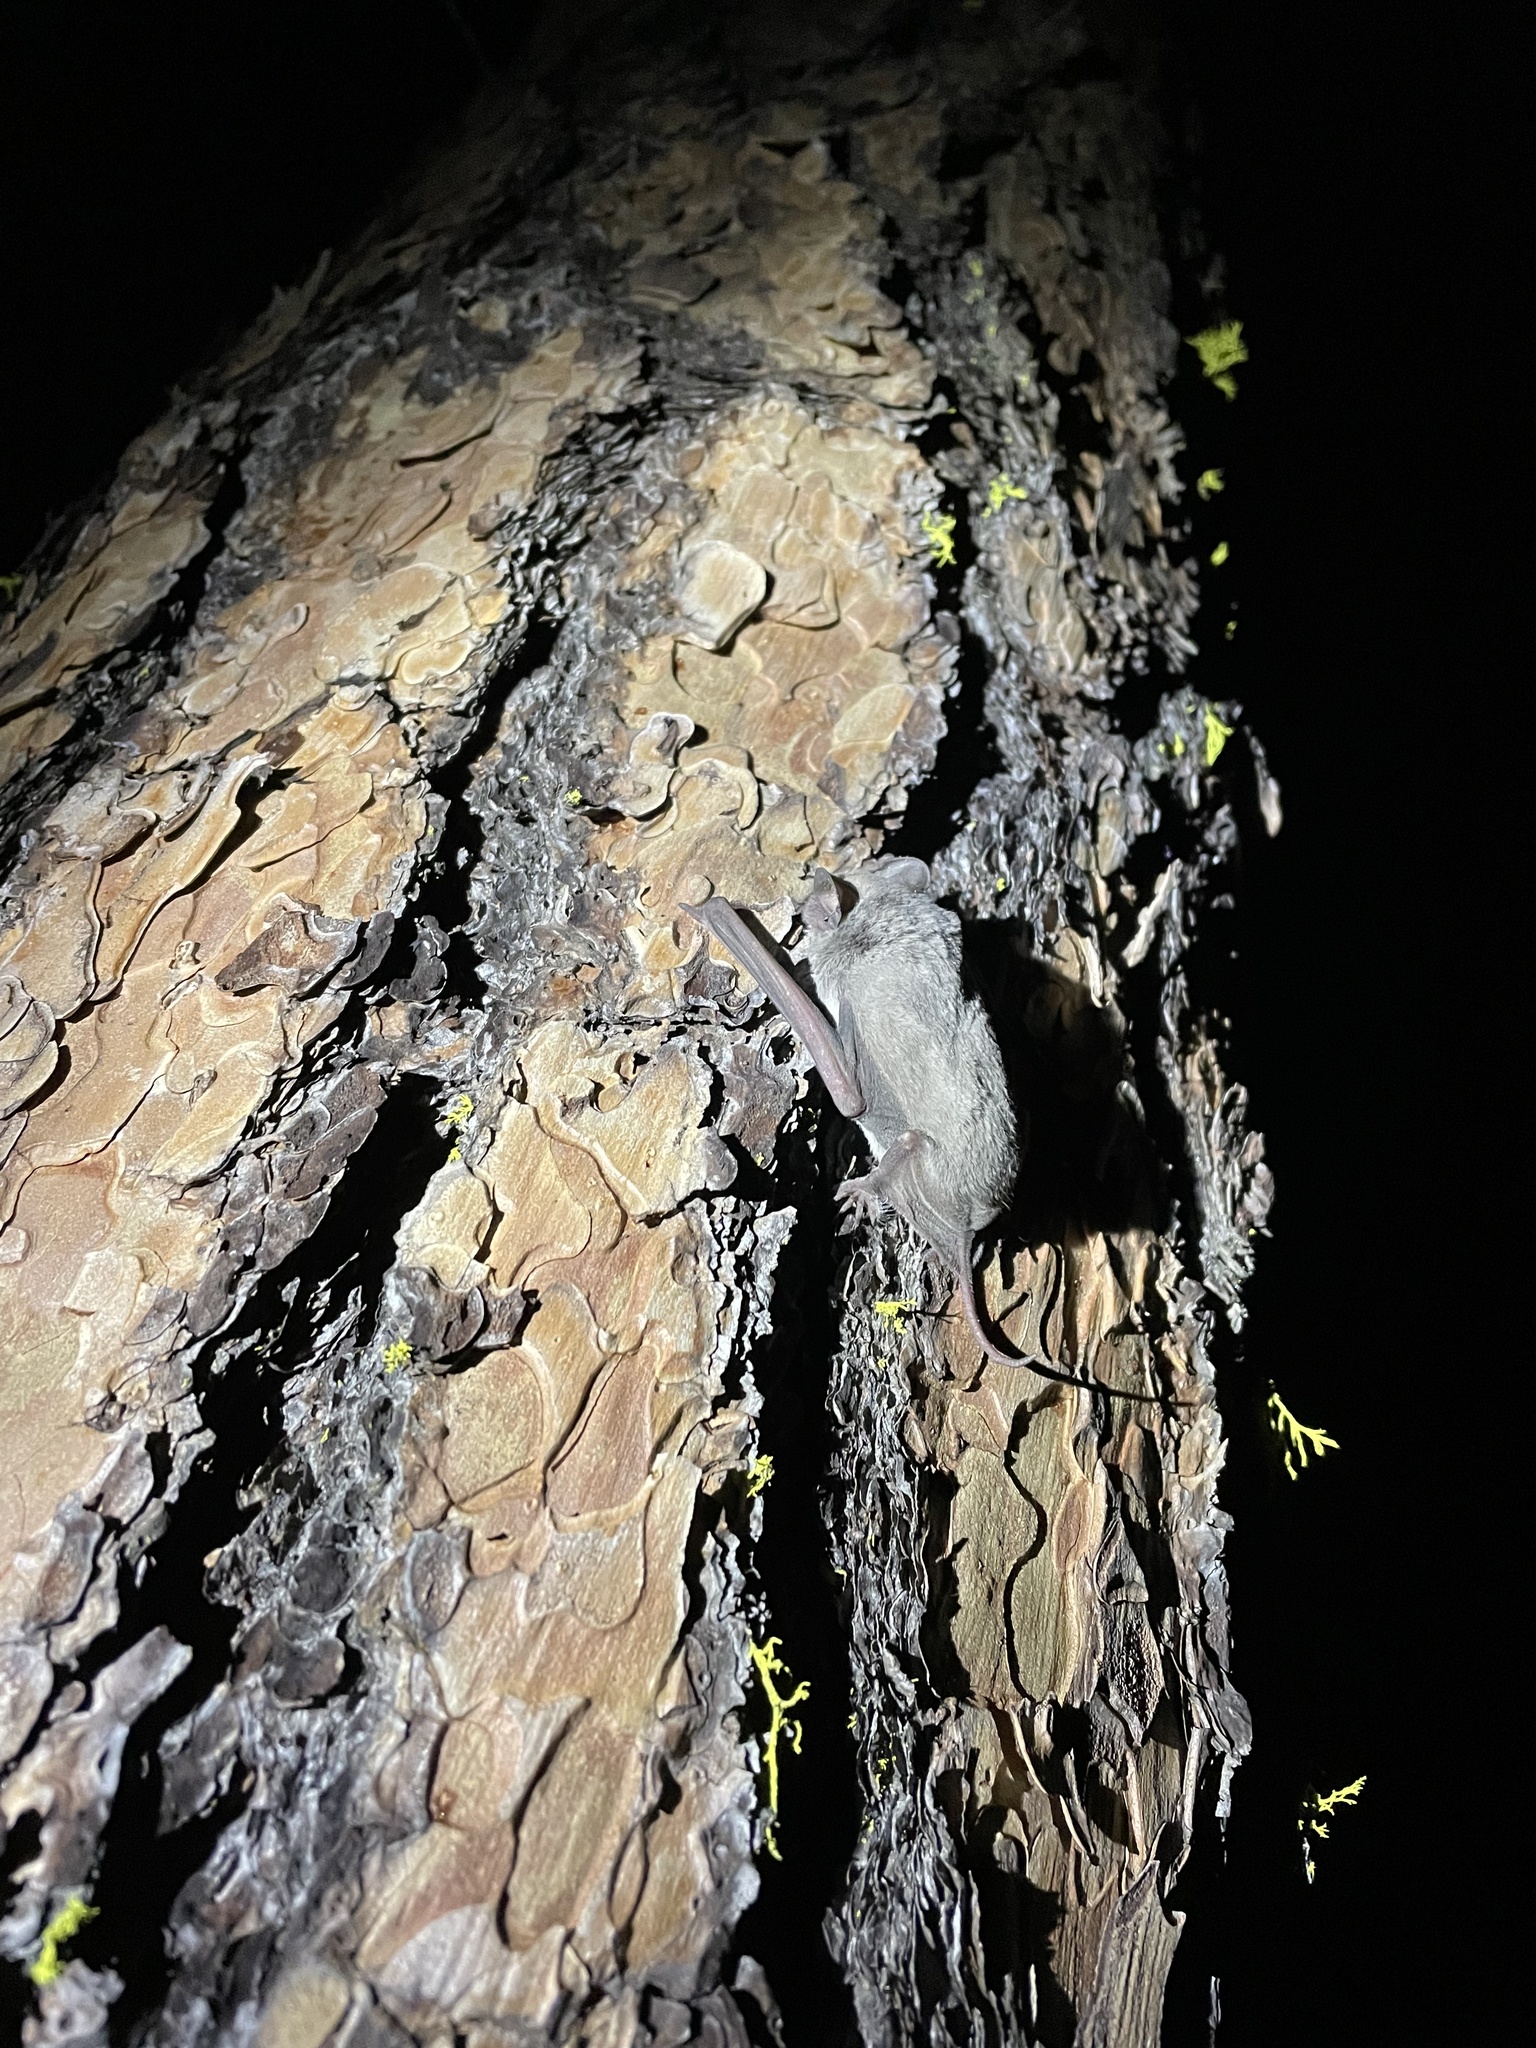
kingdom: Animalia
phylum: Chordata
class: Mammalia
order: Chiroptera
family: Molossidae
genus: Tadarida
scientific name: Tadarida brasiliensis
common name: Mexican free-tailed bat
